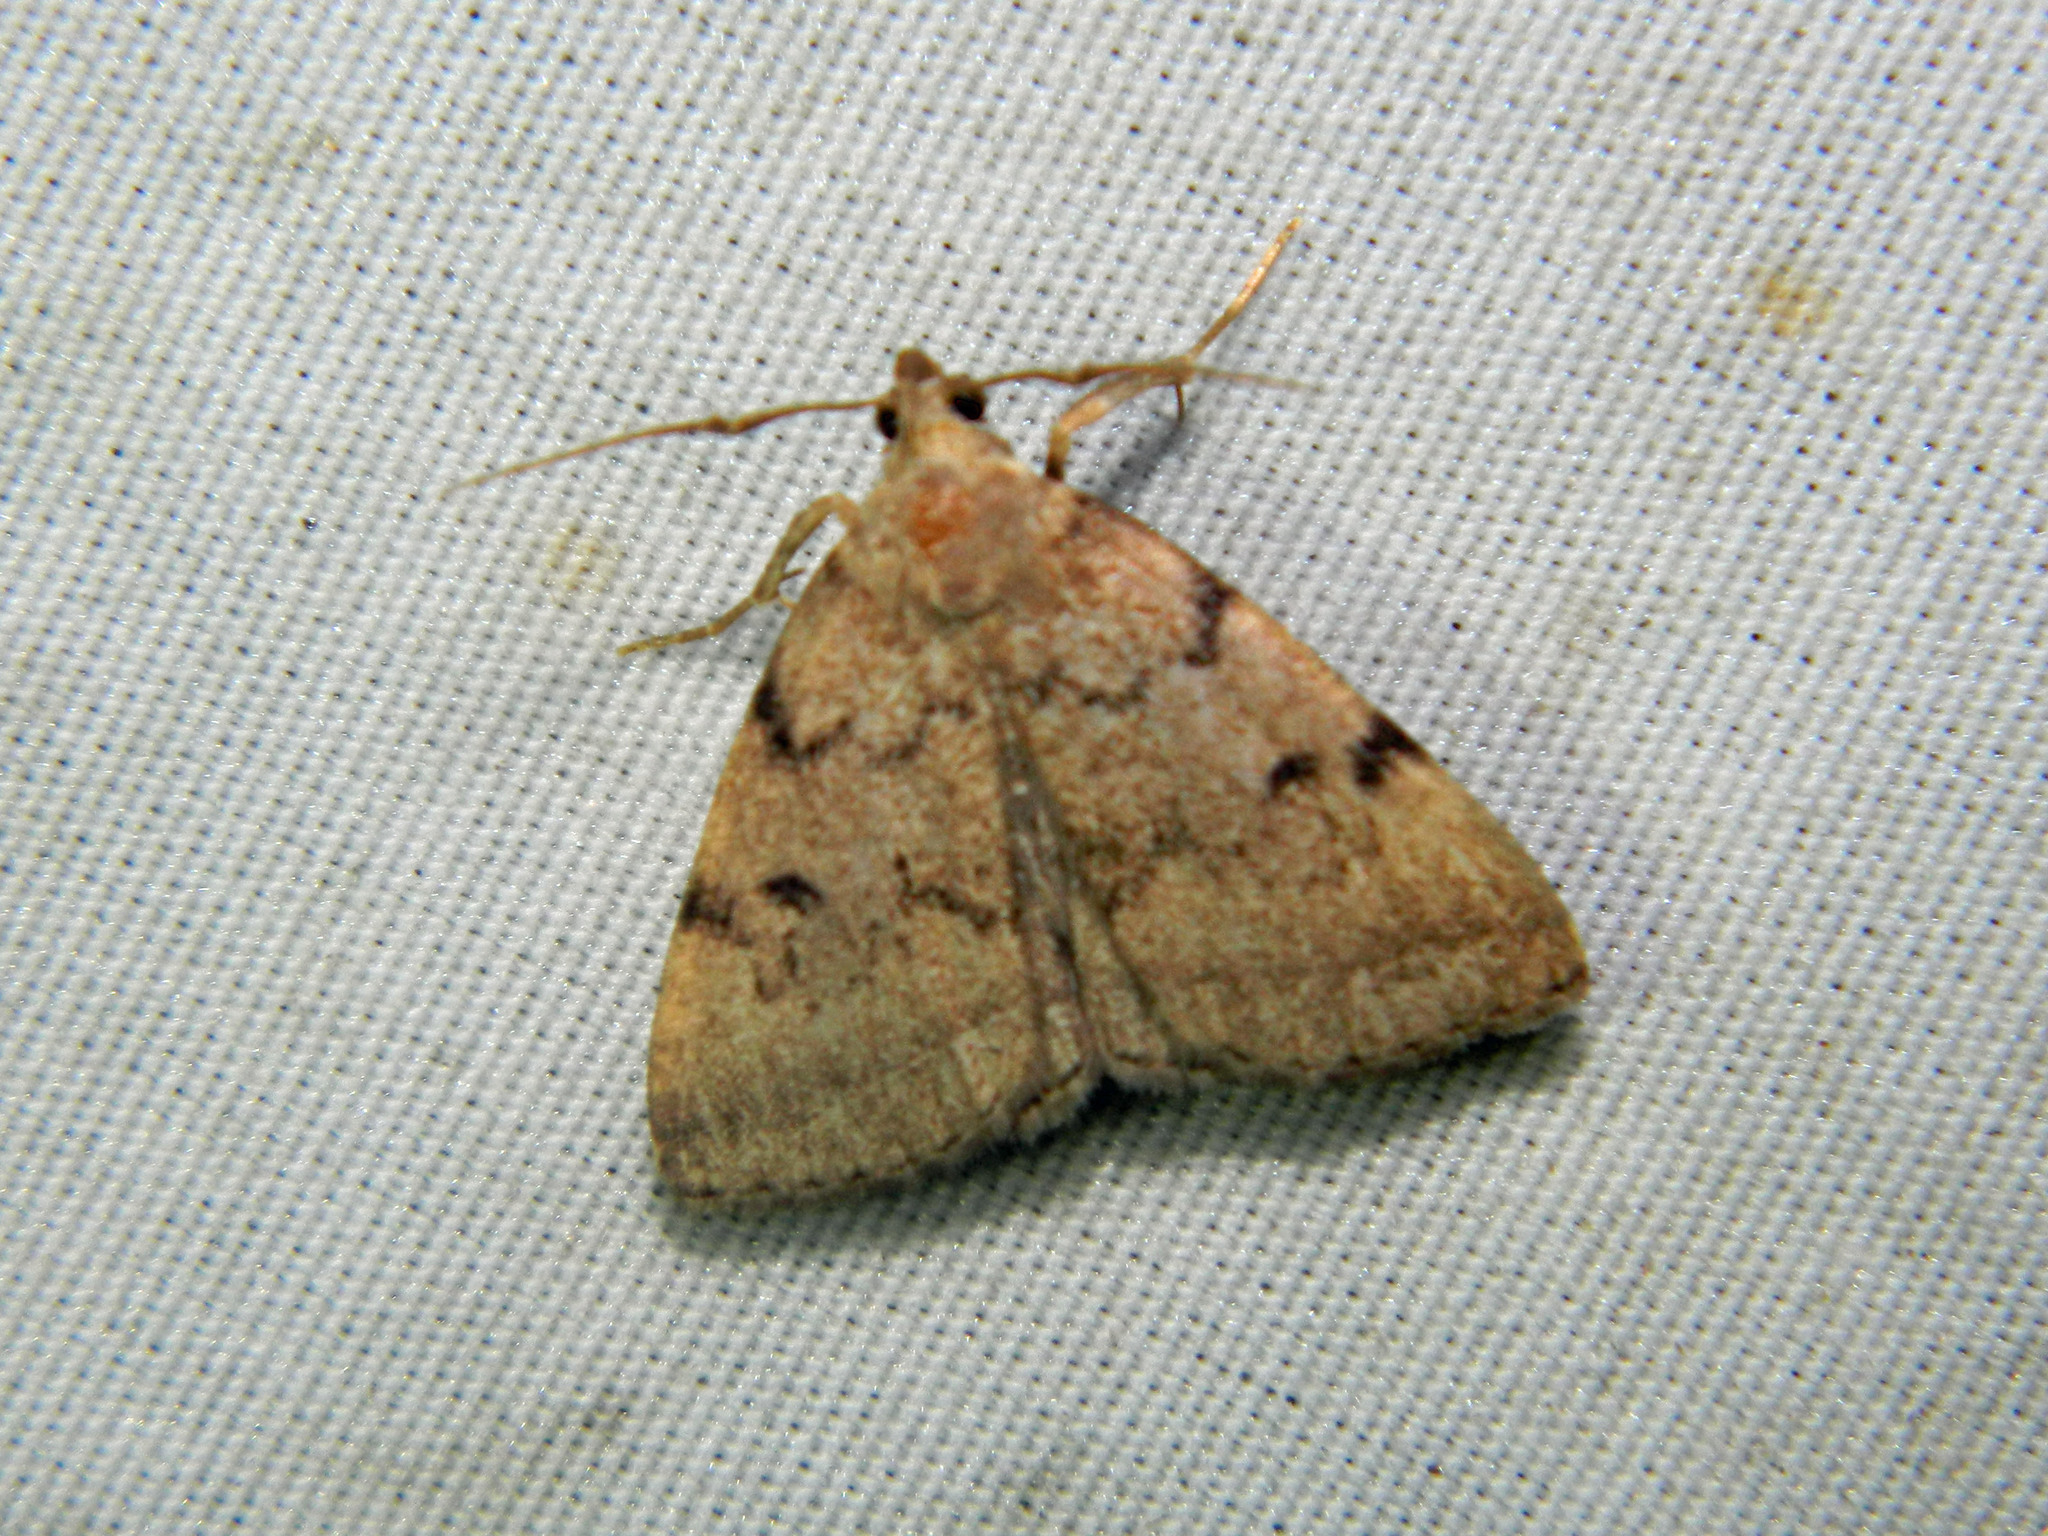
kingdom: Animalia
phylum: Arthropoda
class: Insecta
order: Lepidoptera
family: Erebidae
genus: Zanclognatha
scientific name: Zanclognatha dentata
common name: Toothed fan-foot
